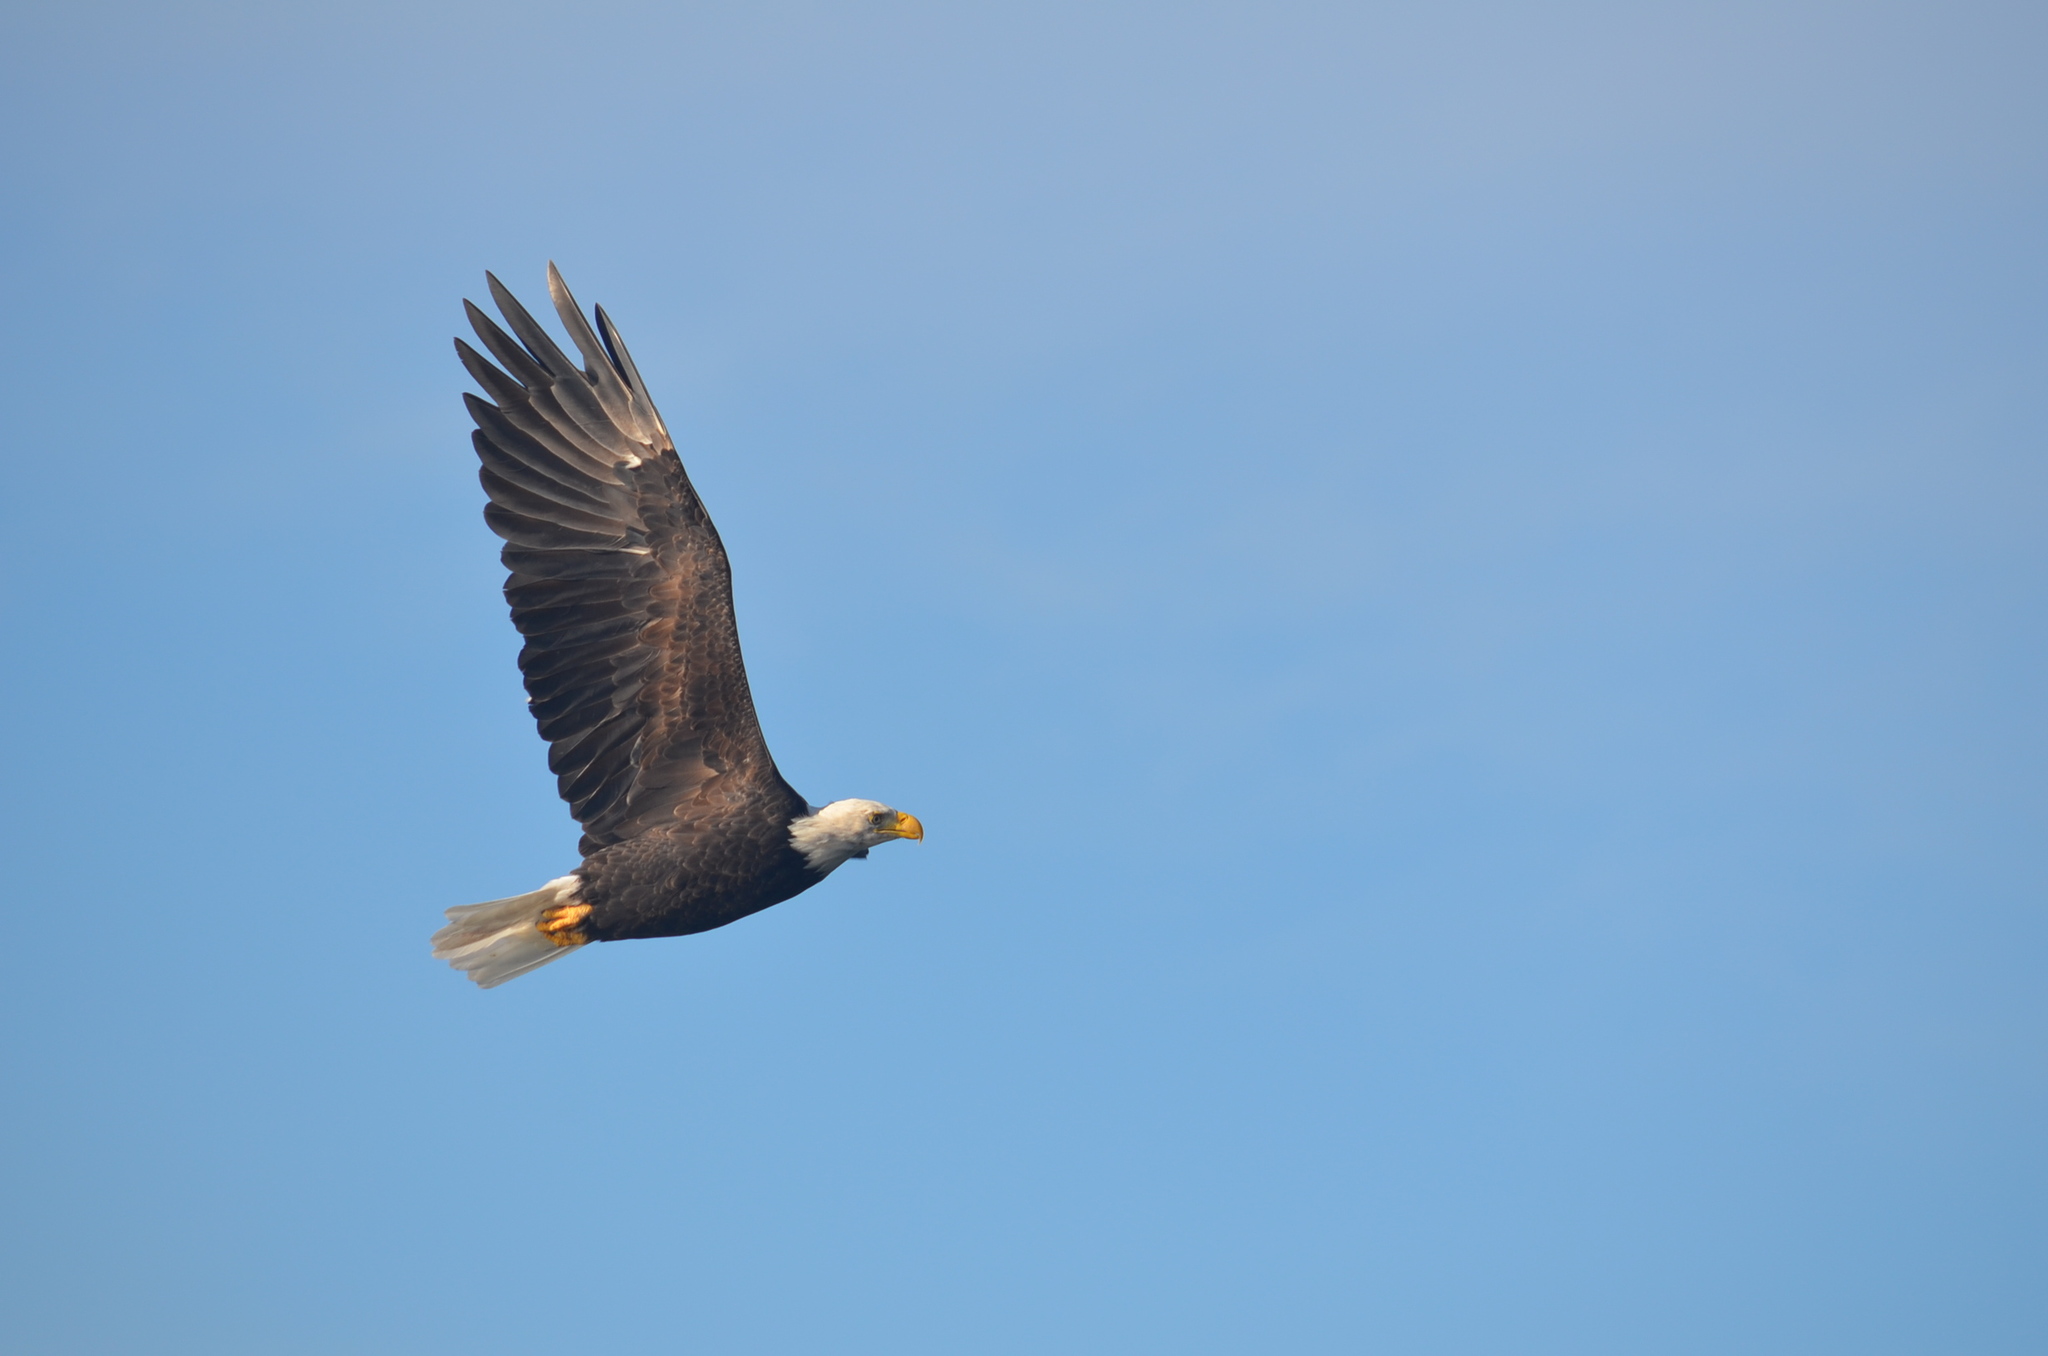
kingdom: Animalia
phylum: Chordata
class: Aves
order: Accipitriformes
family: Accipitridae
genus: Haliaeetus
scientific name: Haliaeetus leucocephalus
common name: Bald eagle
